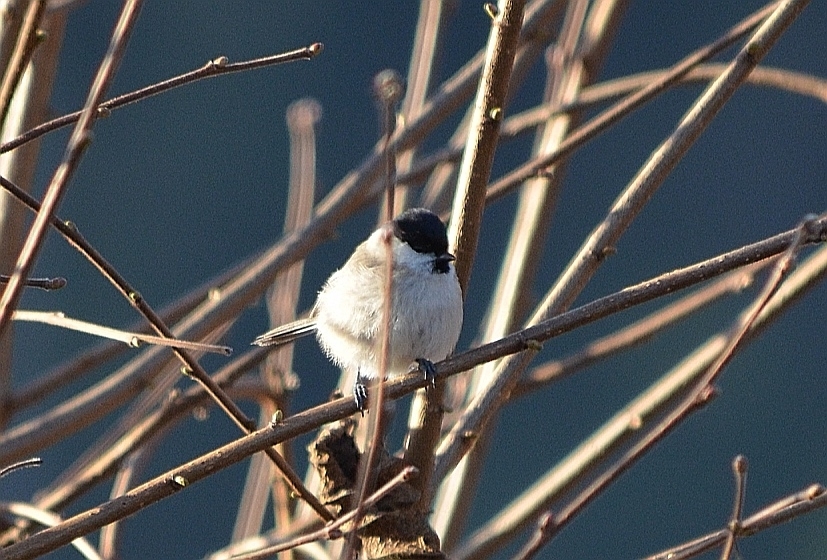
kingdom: Animalia
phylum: Chordata
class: Aves
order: Passeriformes
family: Paridae
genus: Poecile
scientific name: Poecile palustris
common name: Marsh tit
